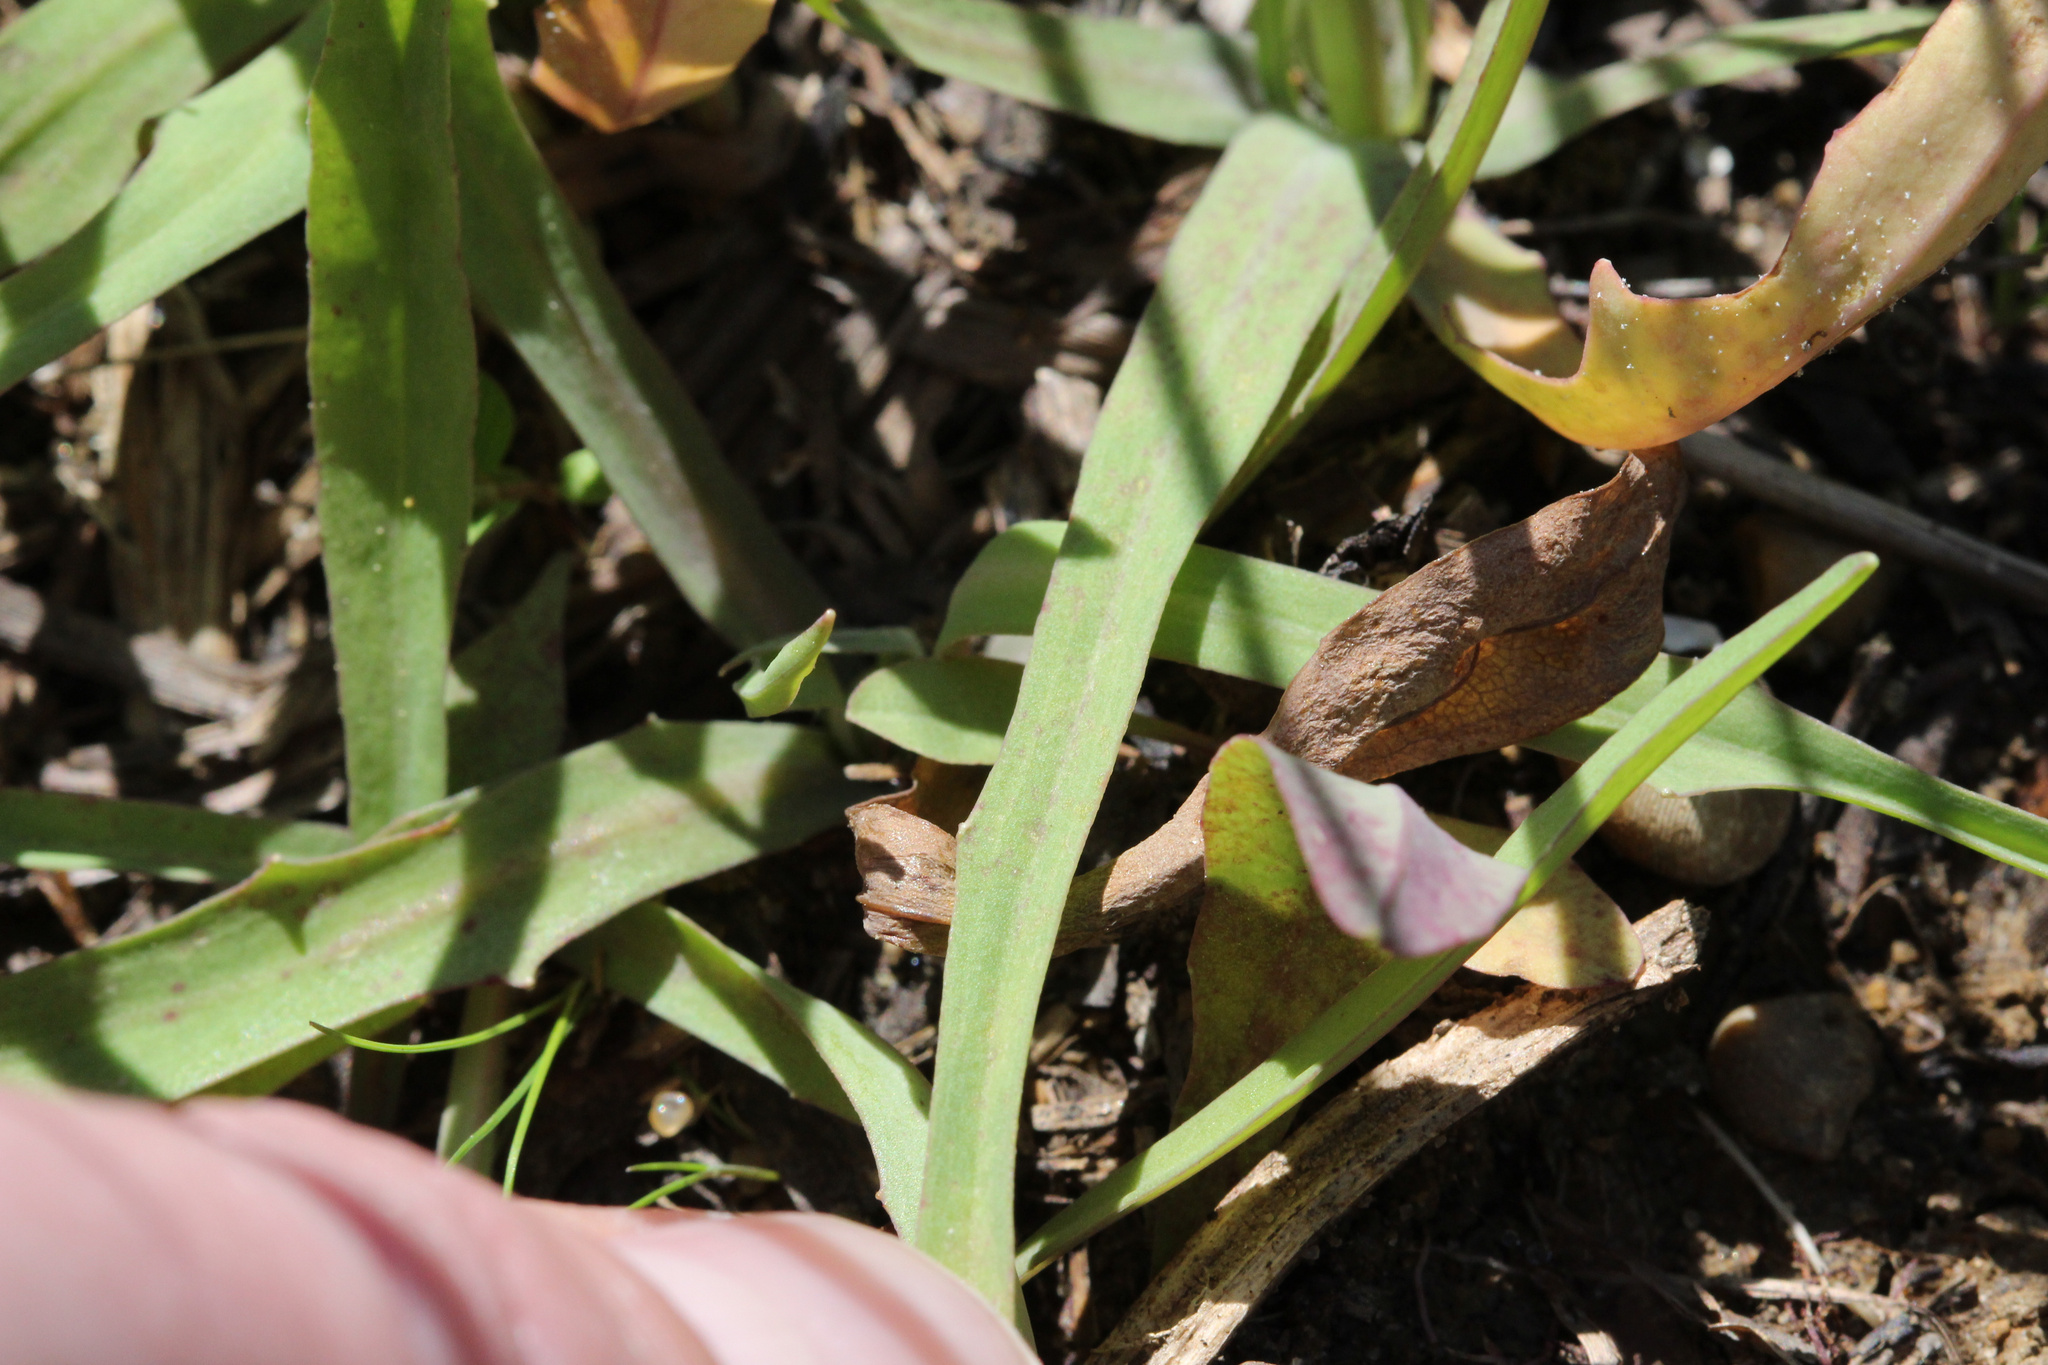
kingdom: Plantae
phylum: Tracheophyta
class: Magnoliopsida
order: Asterales
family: Asteraceae
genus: Krigia
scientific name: Krigia dandelion
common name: Colonial dwarf-dandelion
